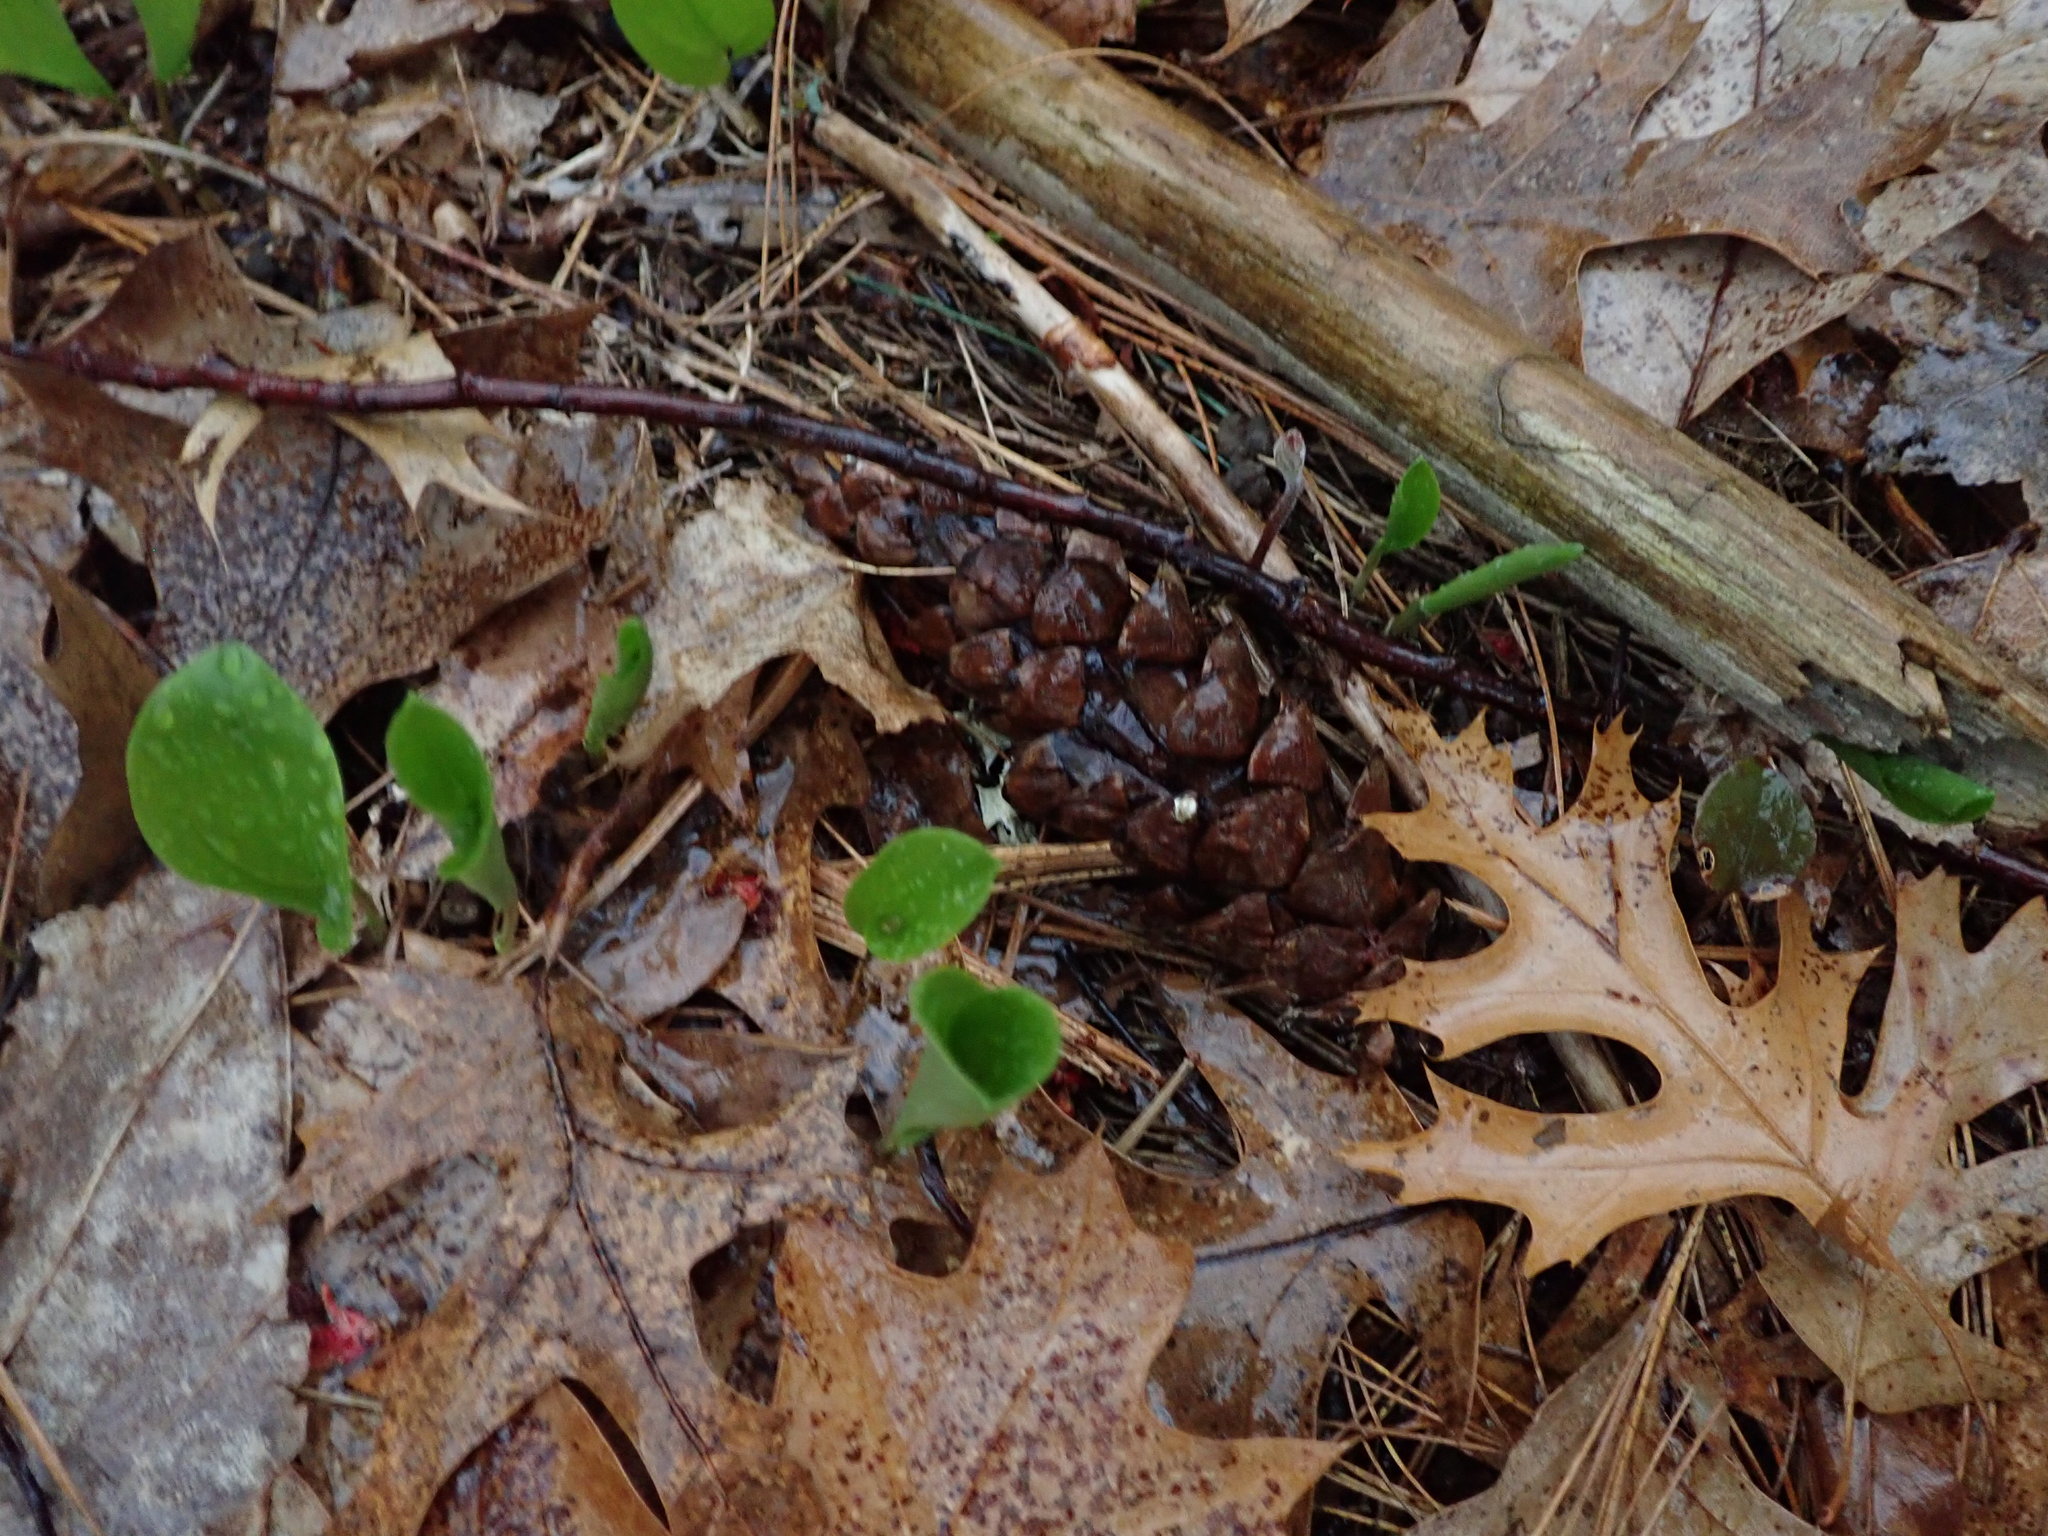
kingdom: Plantae
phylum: Tracheophyta
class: Liliopsida
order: Asparagales
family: Asparagaceae
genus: Maianthemum
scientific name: Maianthemum canadense
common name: False lily-of-the-valley
